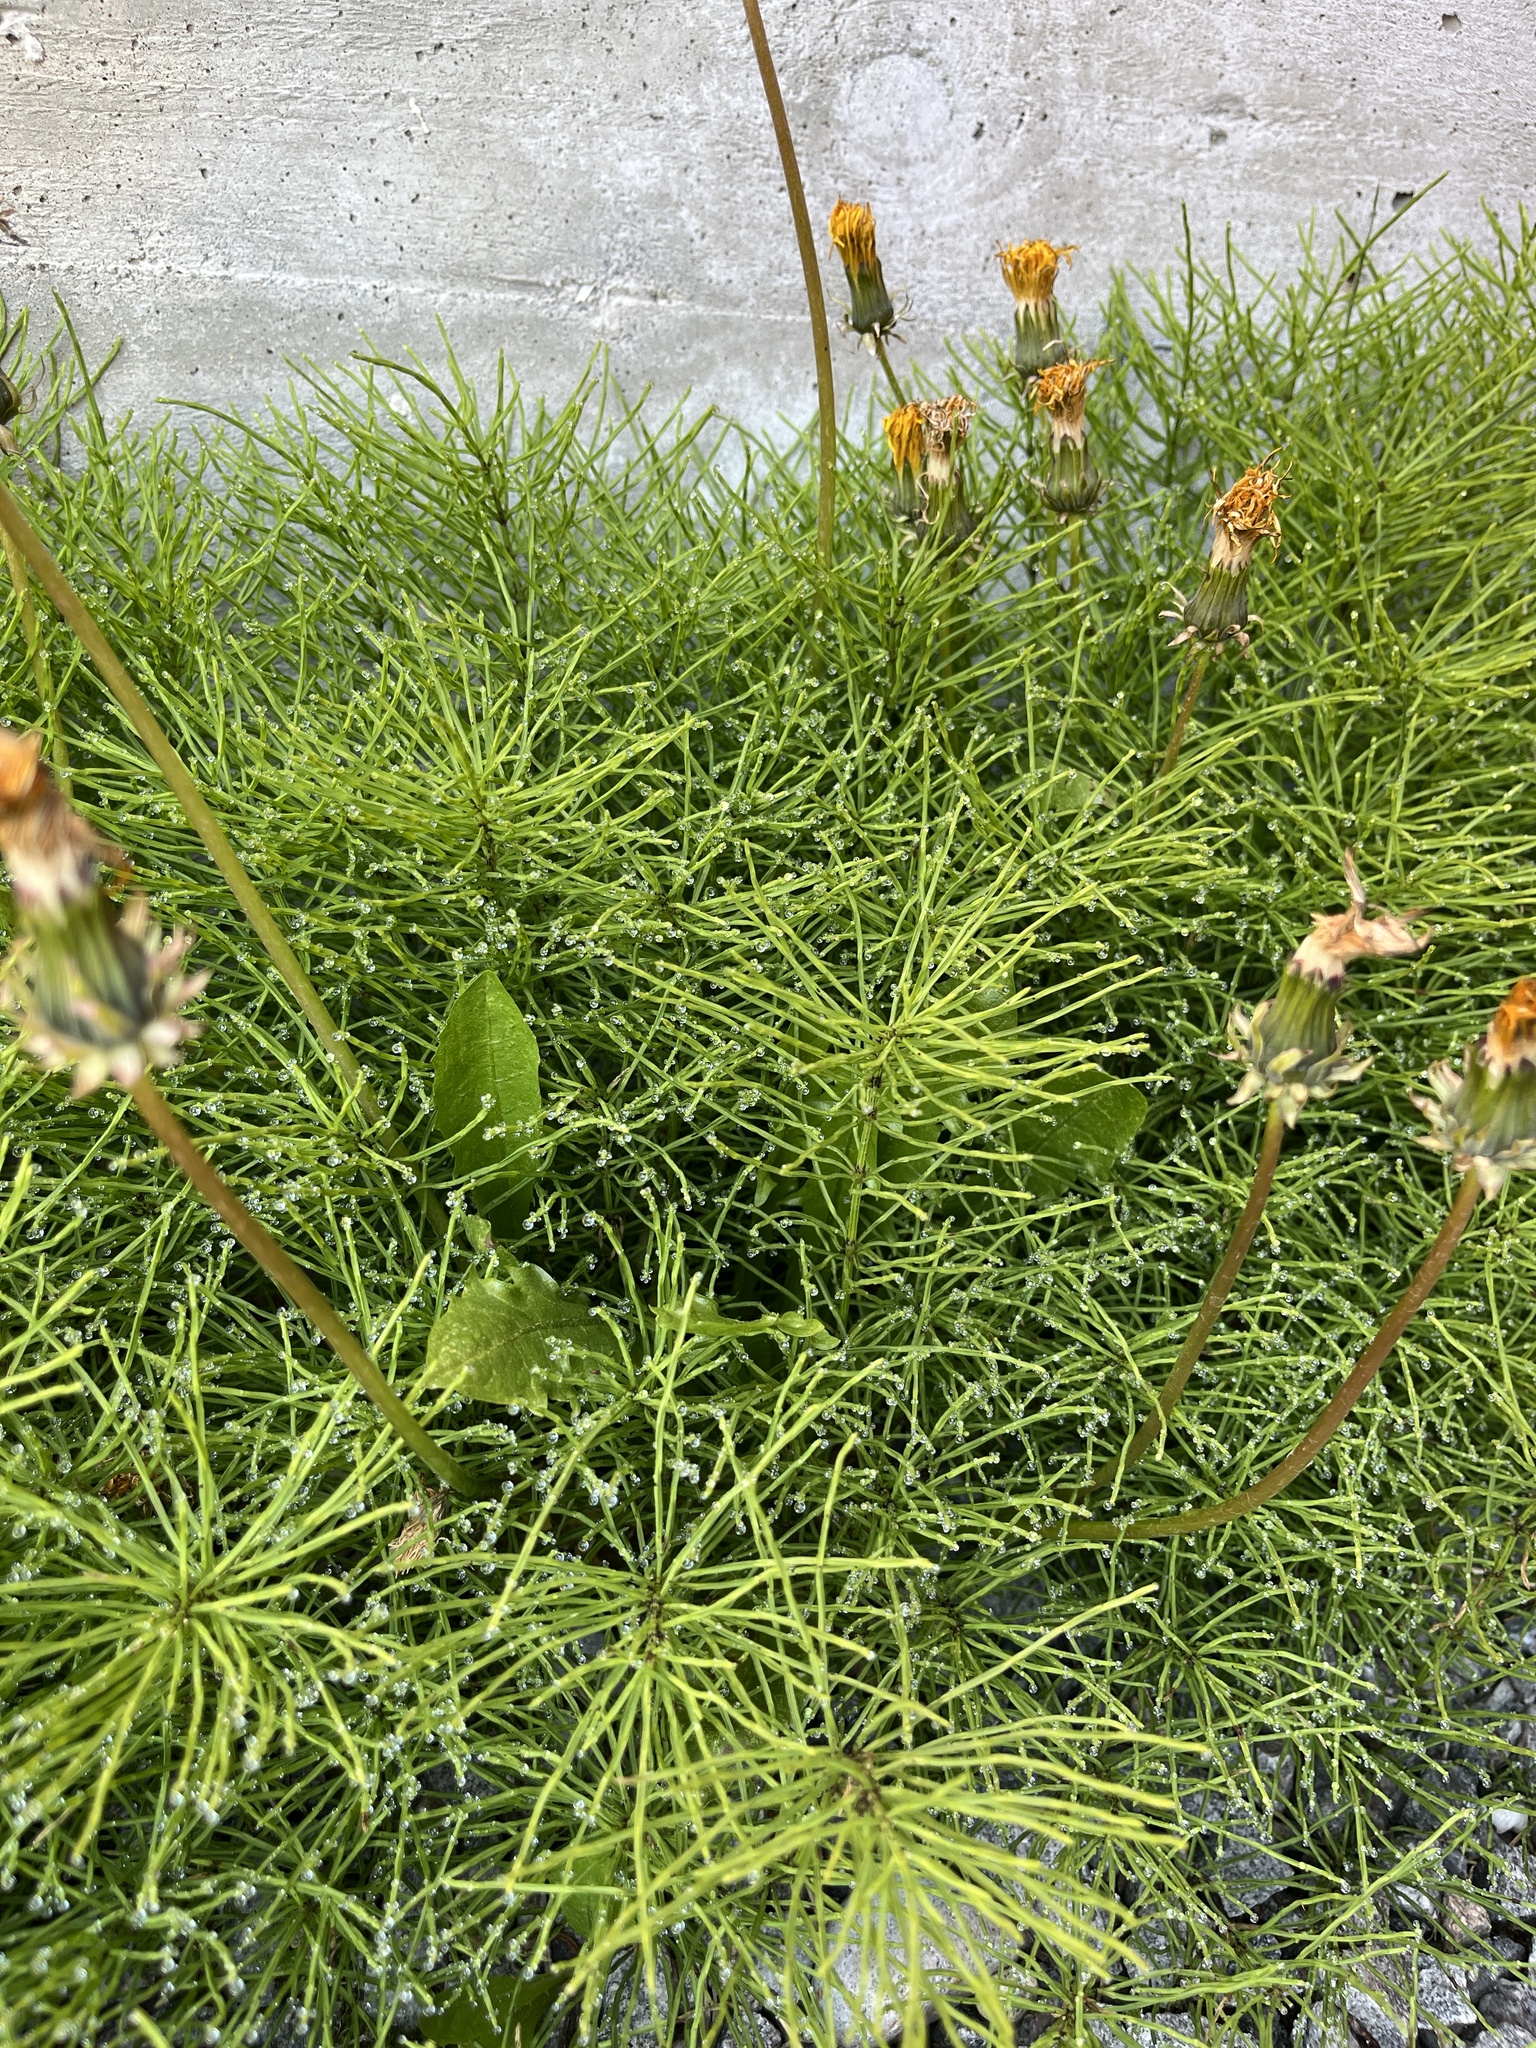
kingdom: Plantae
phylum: Tracheophyta
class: Polypodiopsida
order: Equisetales
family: Equisetaceae
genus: Equisetum
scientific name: Equisetum arvense
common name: Field horsetail
